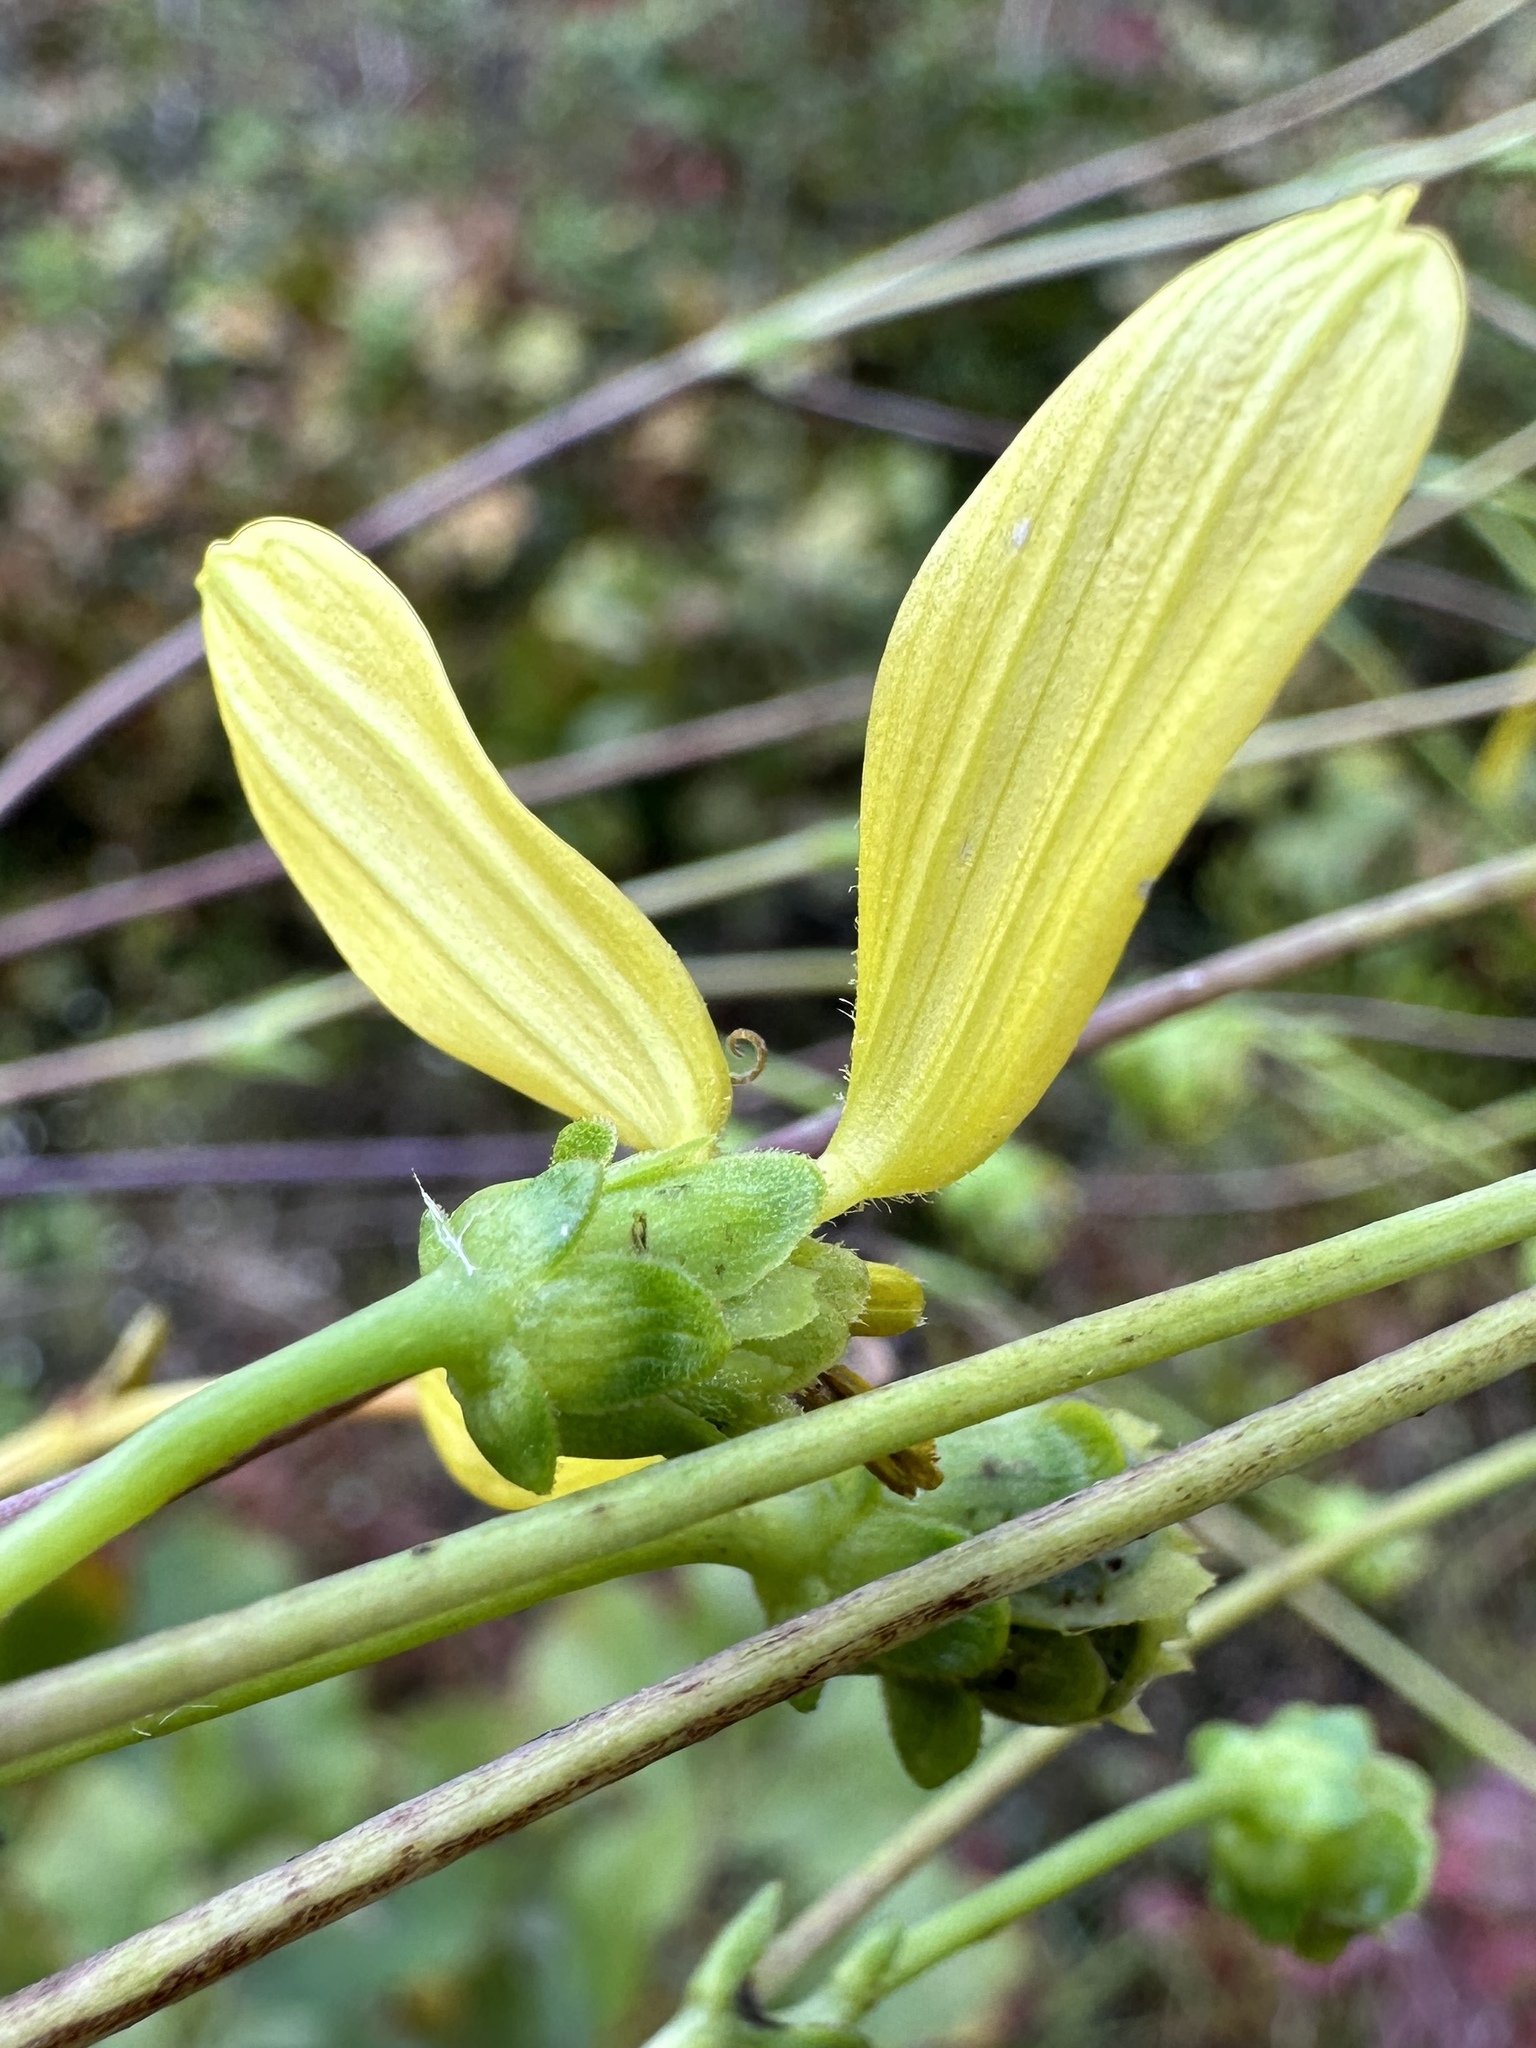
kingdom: Plantae
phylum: Tracheophyta
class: Magnoliopsida
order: Asterales
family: Asteraceae
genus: Silphium
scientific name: Silphium compositum
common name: Lesser basal-leaf rosinweed
